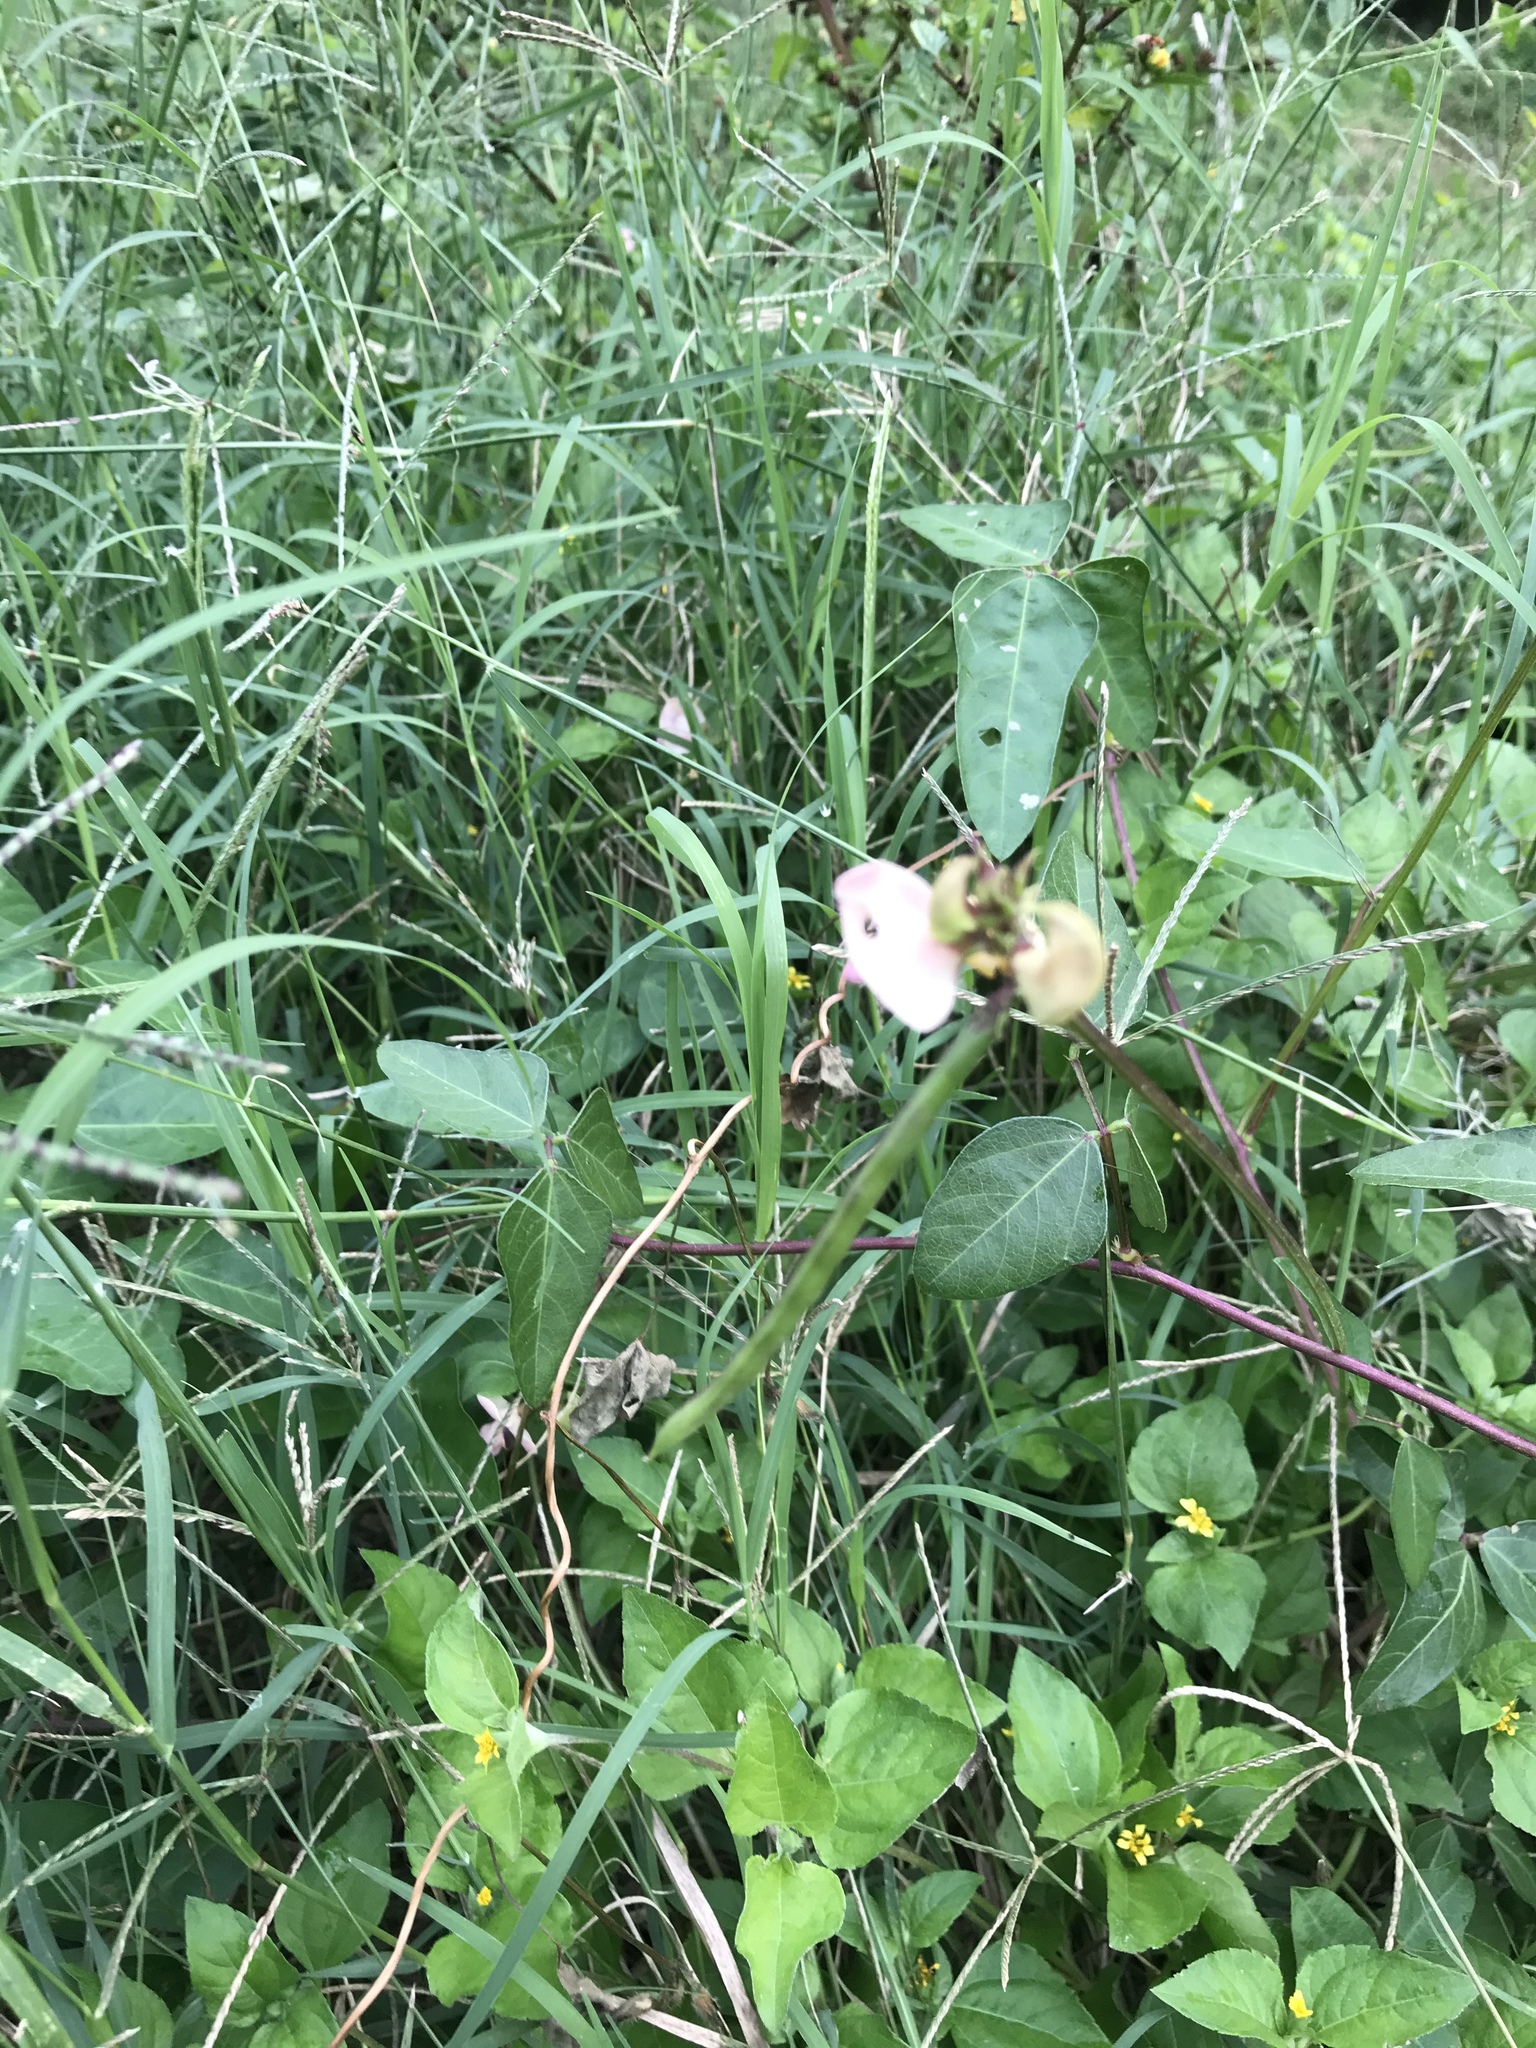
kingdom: Plantae
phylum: Tracheophyta
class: Magnoliopsida
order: Fabales
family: Fabaceae
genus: Strophostyles
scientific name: Strophostyles helvola
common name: Trailing wild bean
